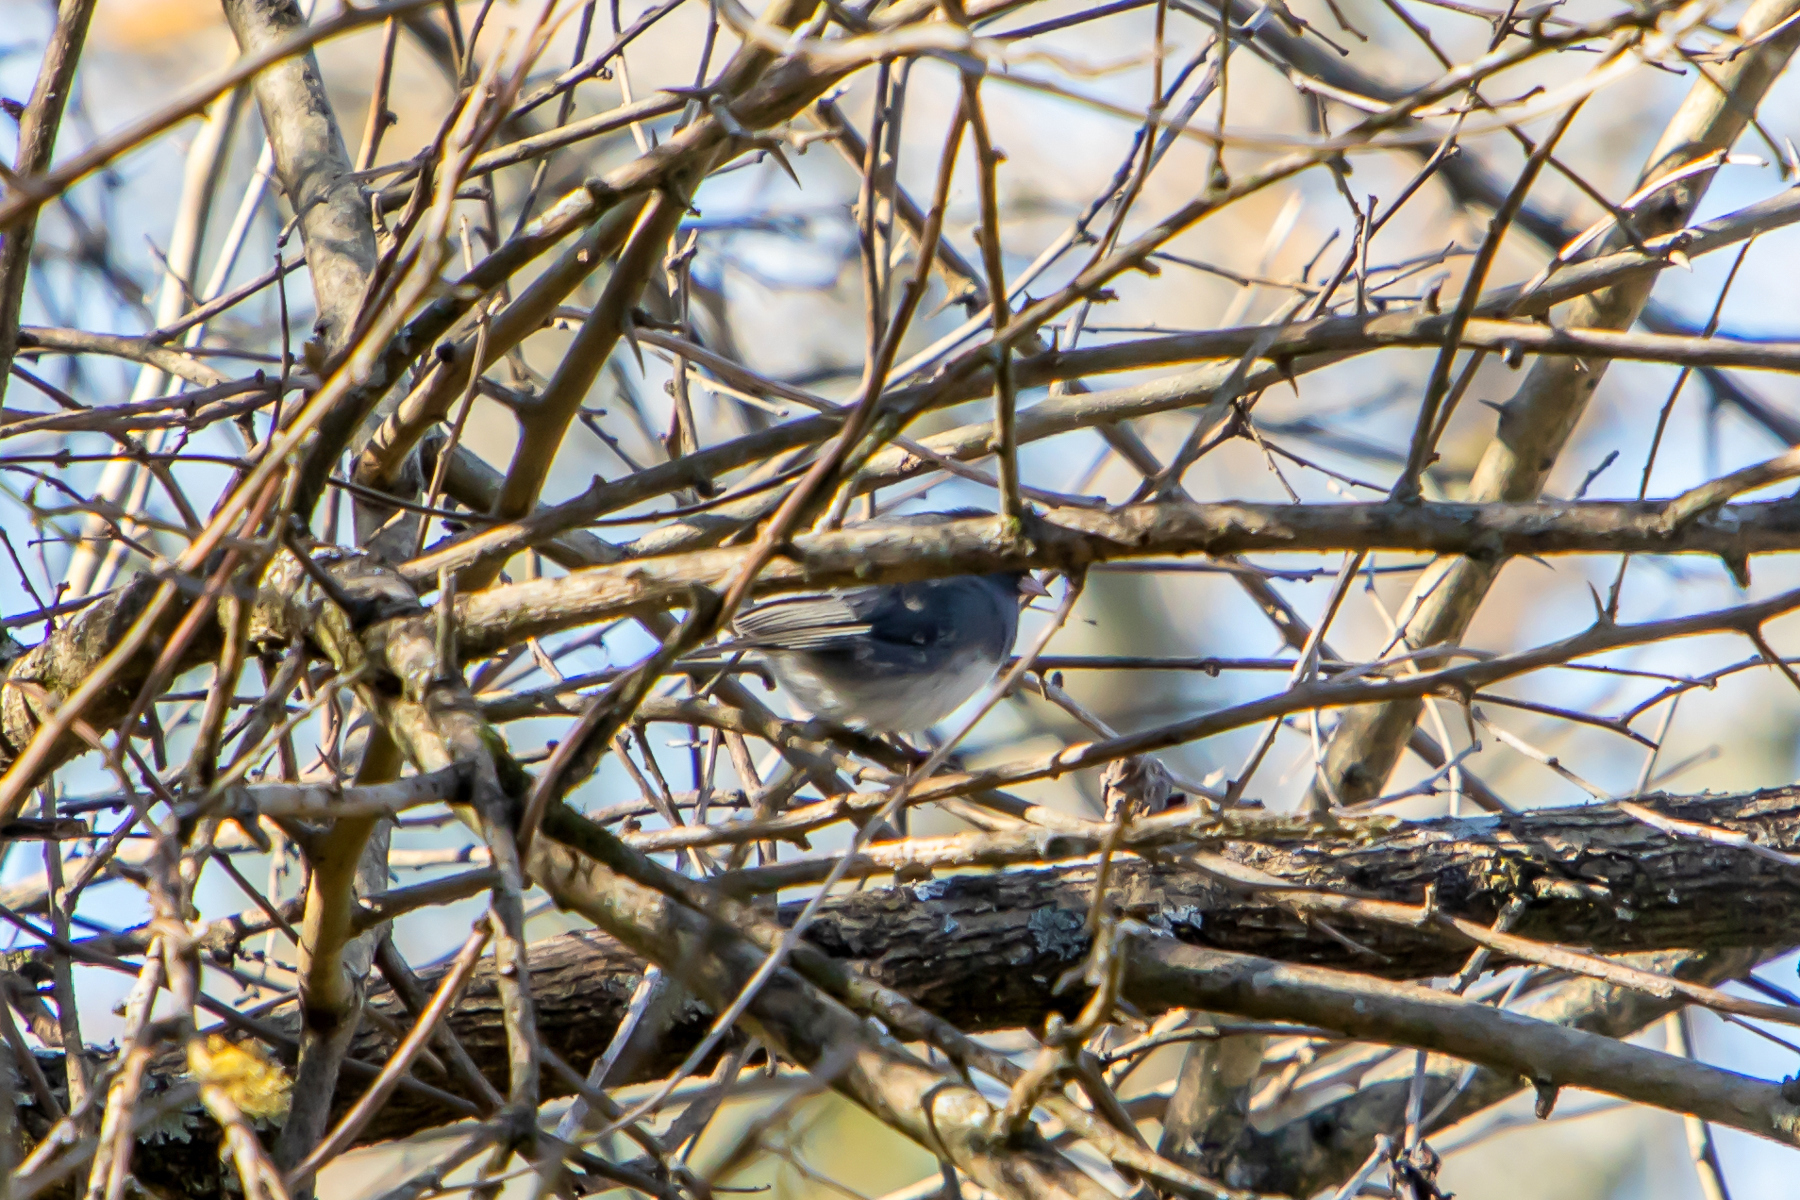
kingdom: Animalia
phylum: Chordata
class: Aves
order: Passeriformes
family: Passerellidae
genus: Junco
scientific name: Junco hyemalis
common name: Dark-eyed junco
